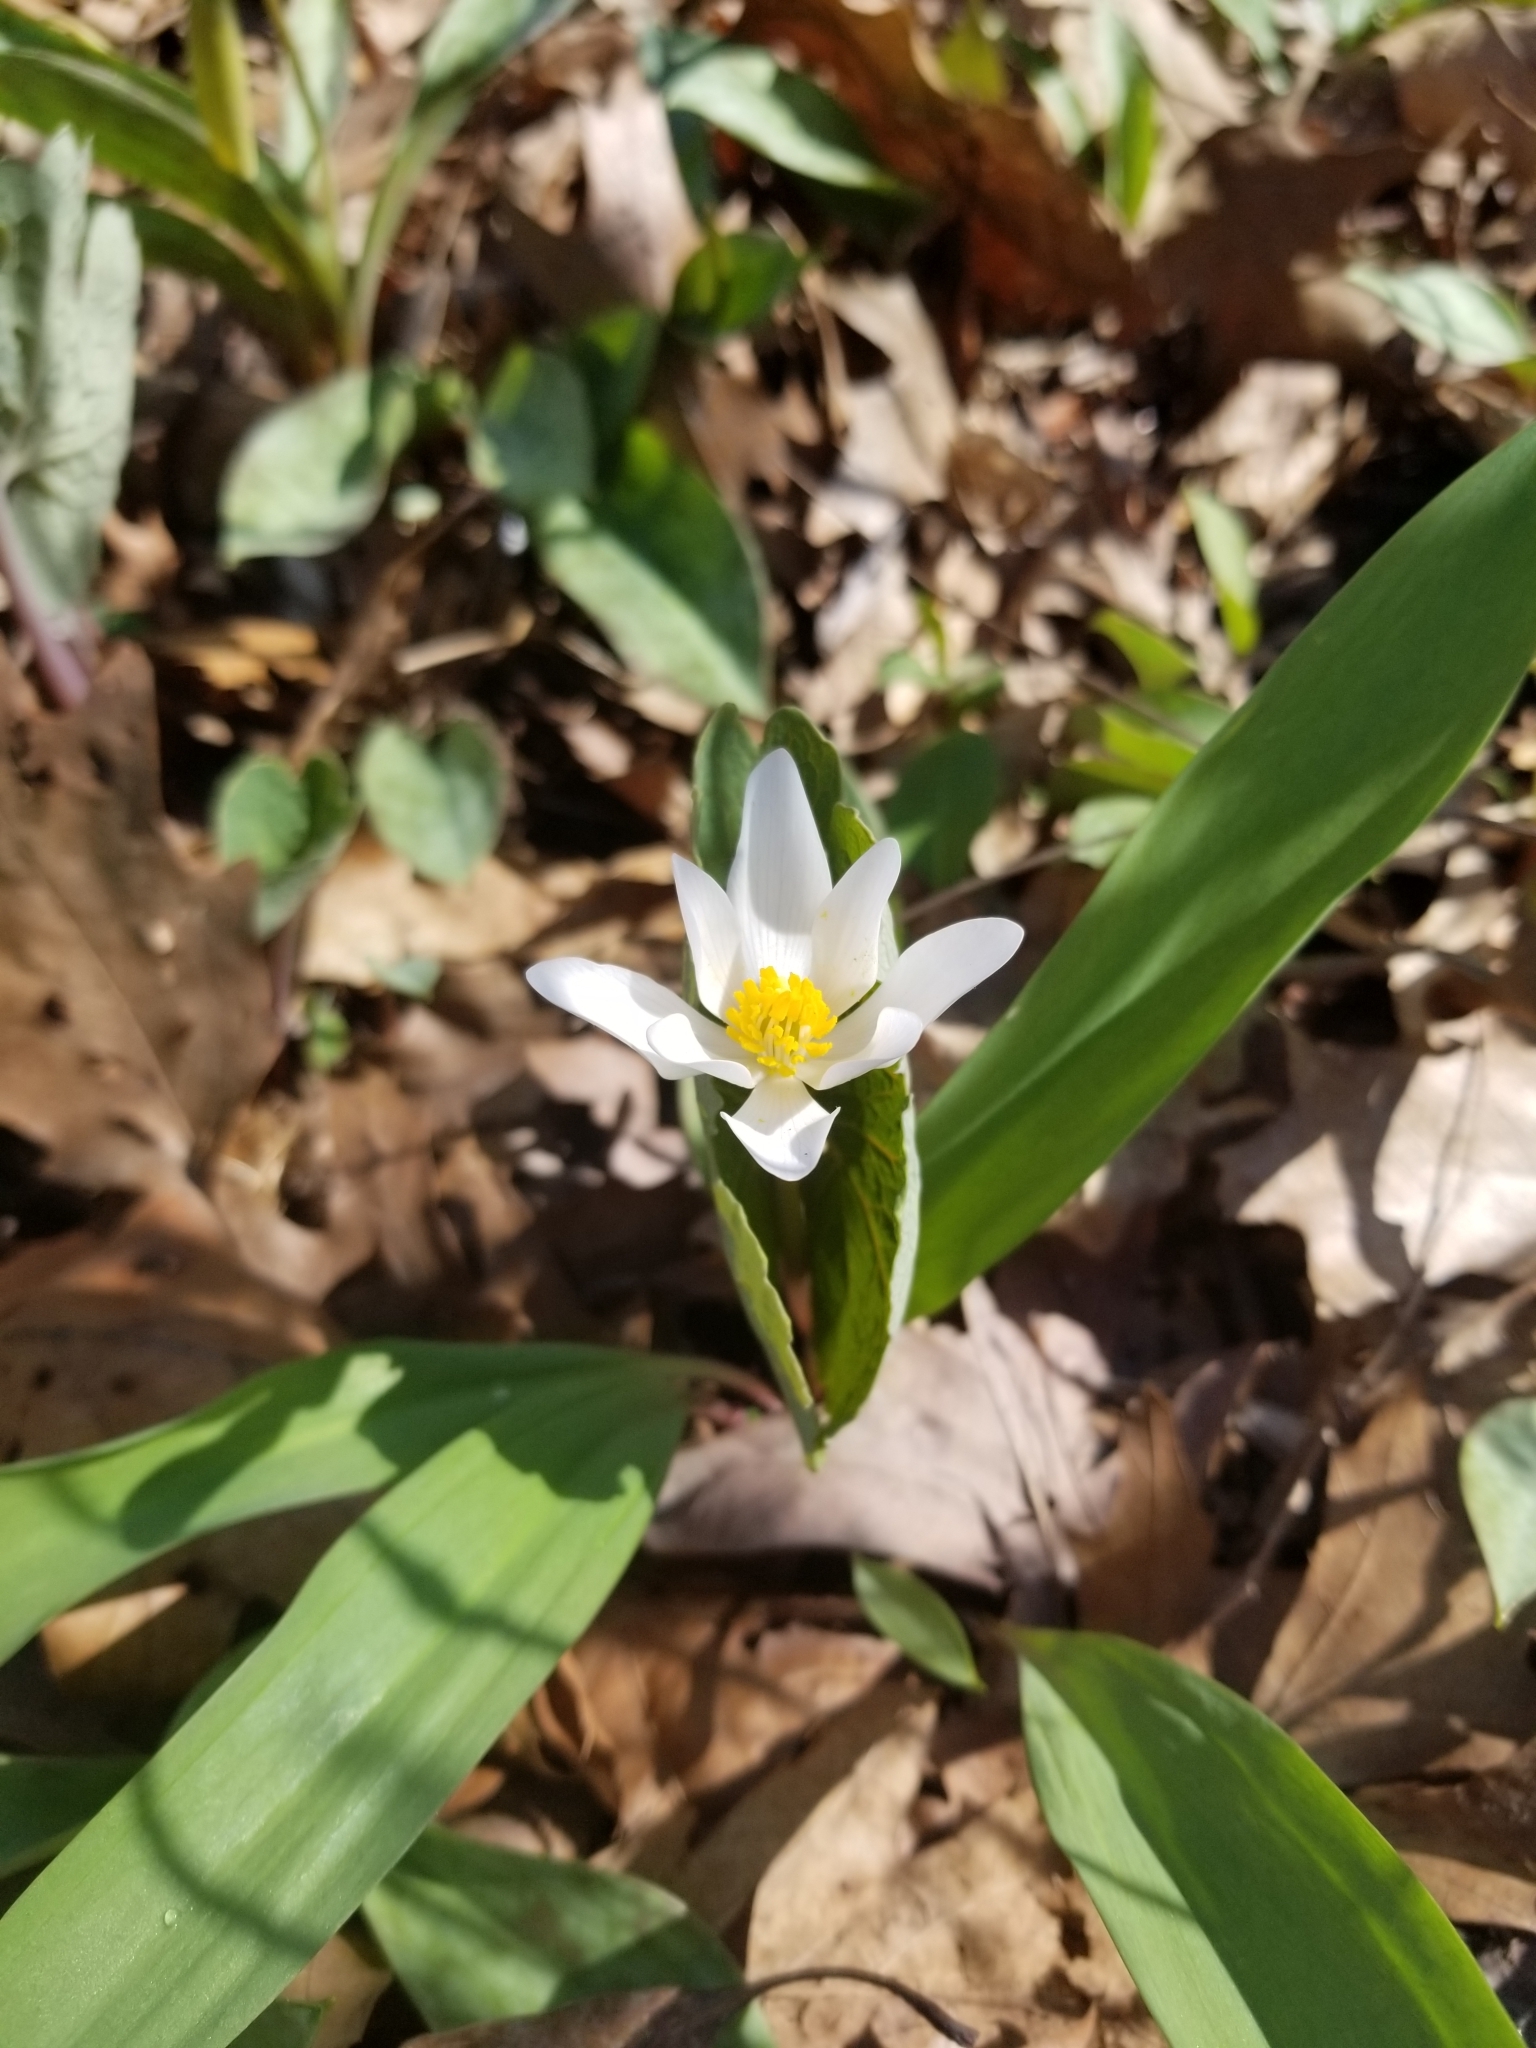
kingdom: Plantae
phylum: Tracheophyta
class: Magnoliopsida
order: Ranunculales
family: Papaveraceae
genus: Sanguinaria
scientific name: Sanguinaria canadensis
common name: Bloodroot
